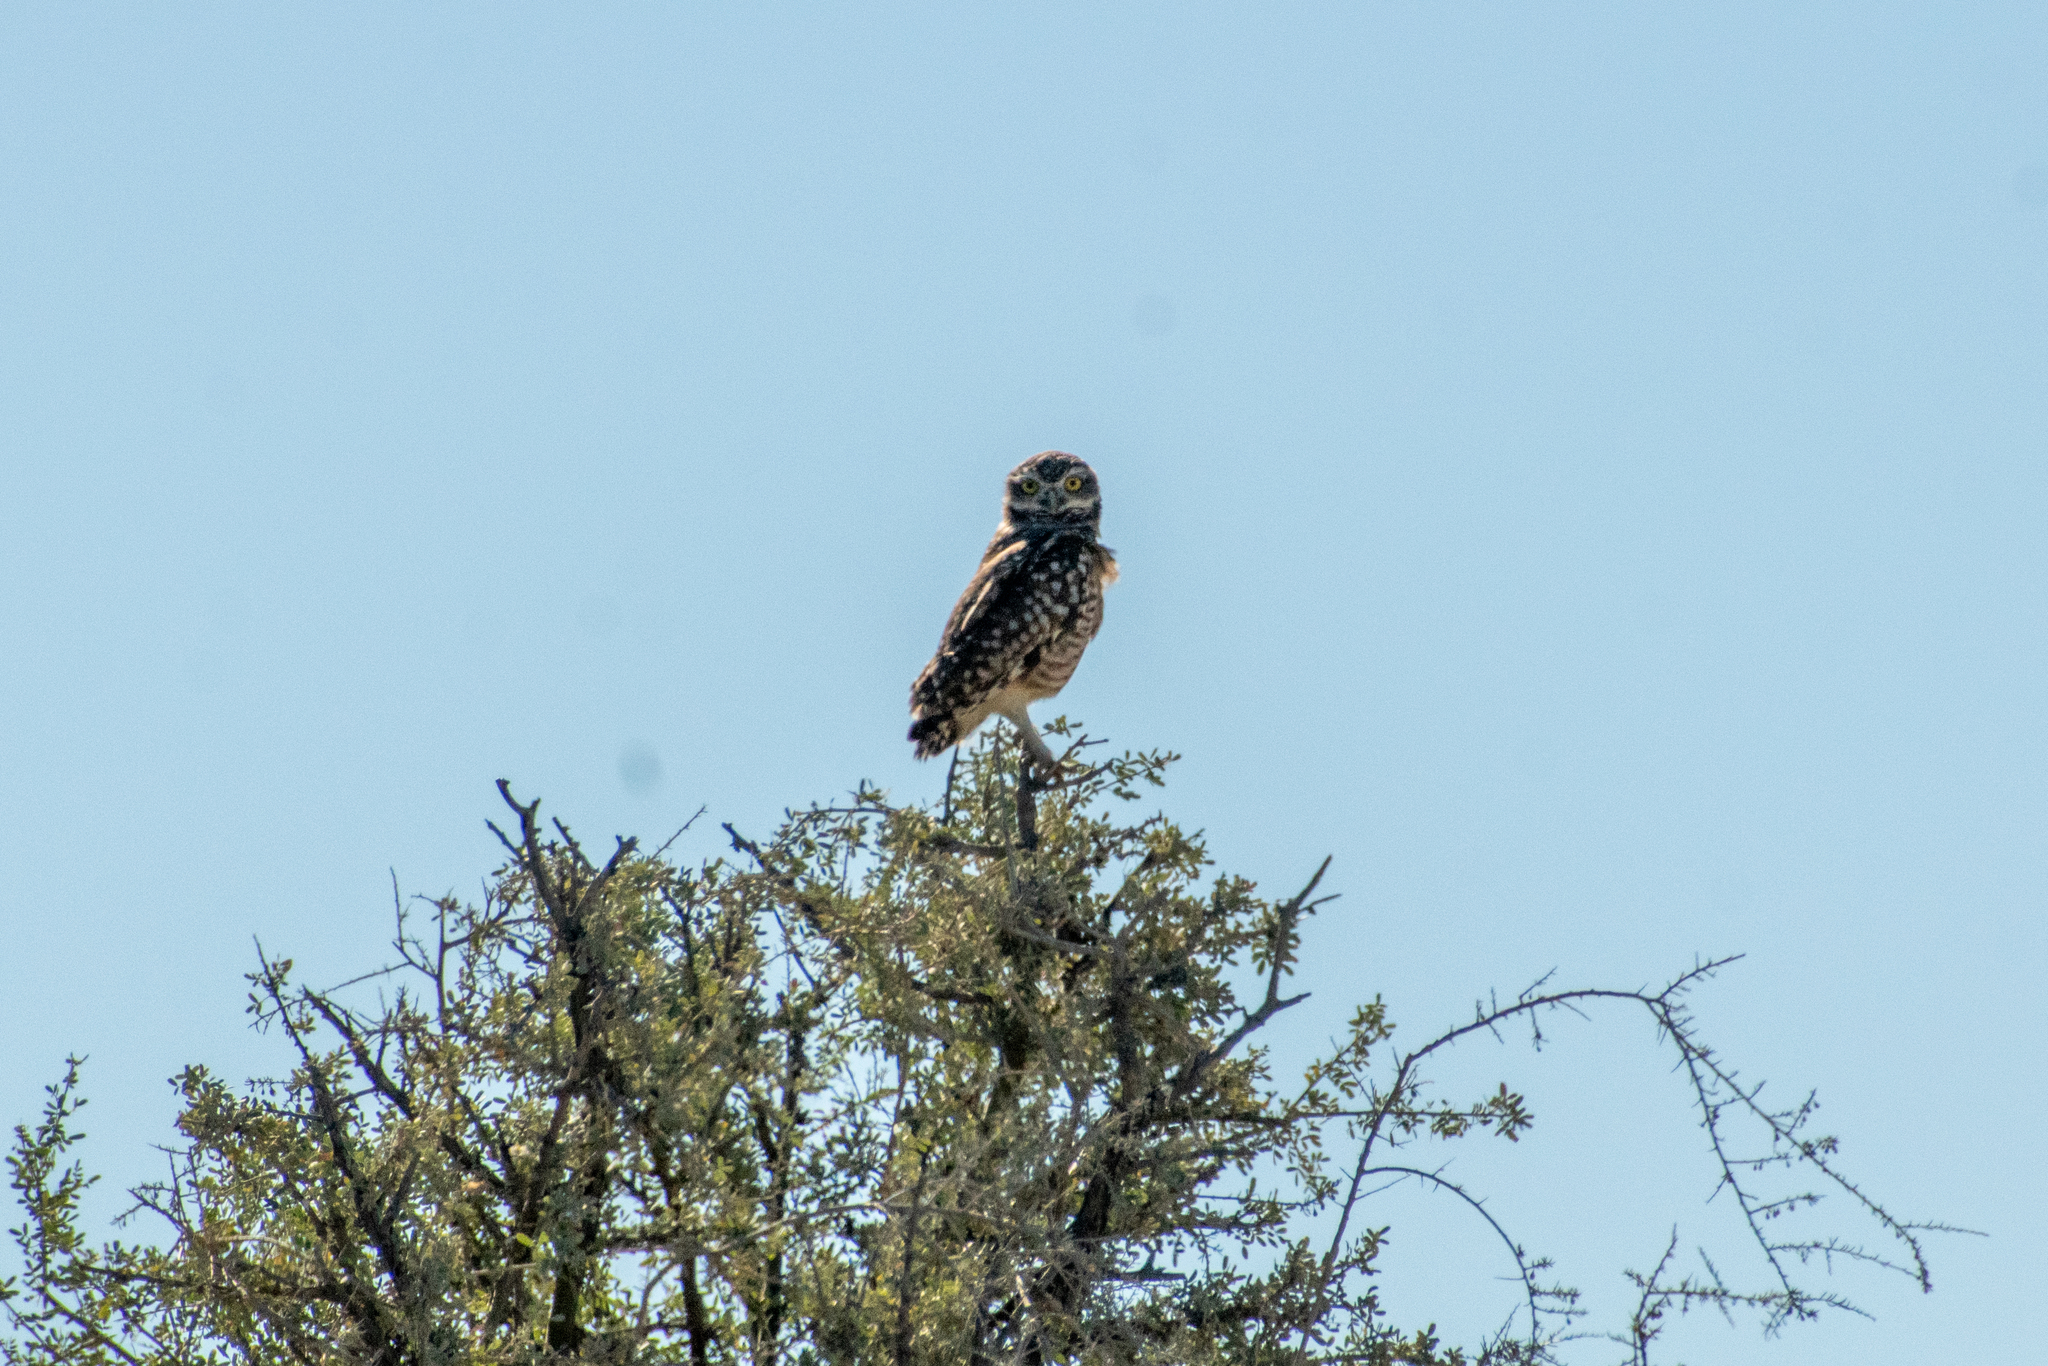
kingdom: Animalia
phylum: Chordata
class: Aves
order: Strigiformes
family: Strigidae
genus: Athene
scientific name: Athene cunicularia
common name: Burrowing owl
